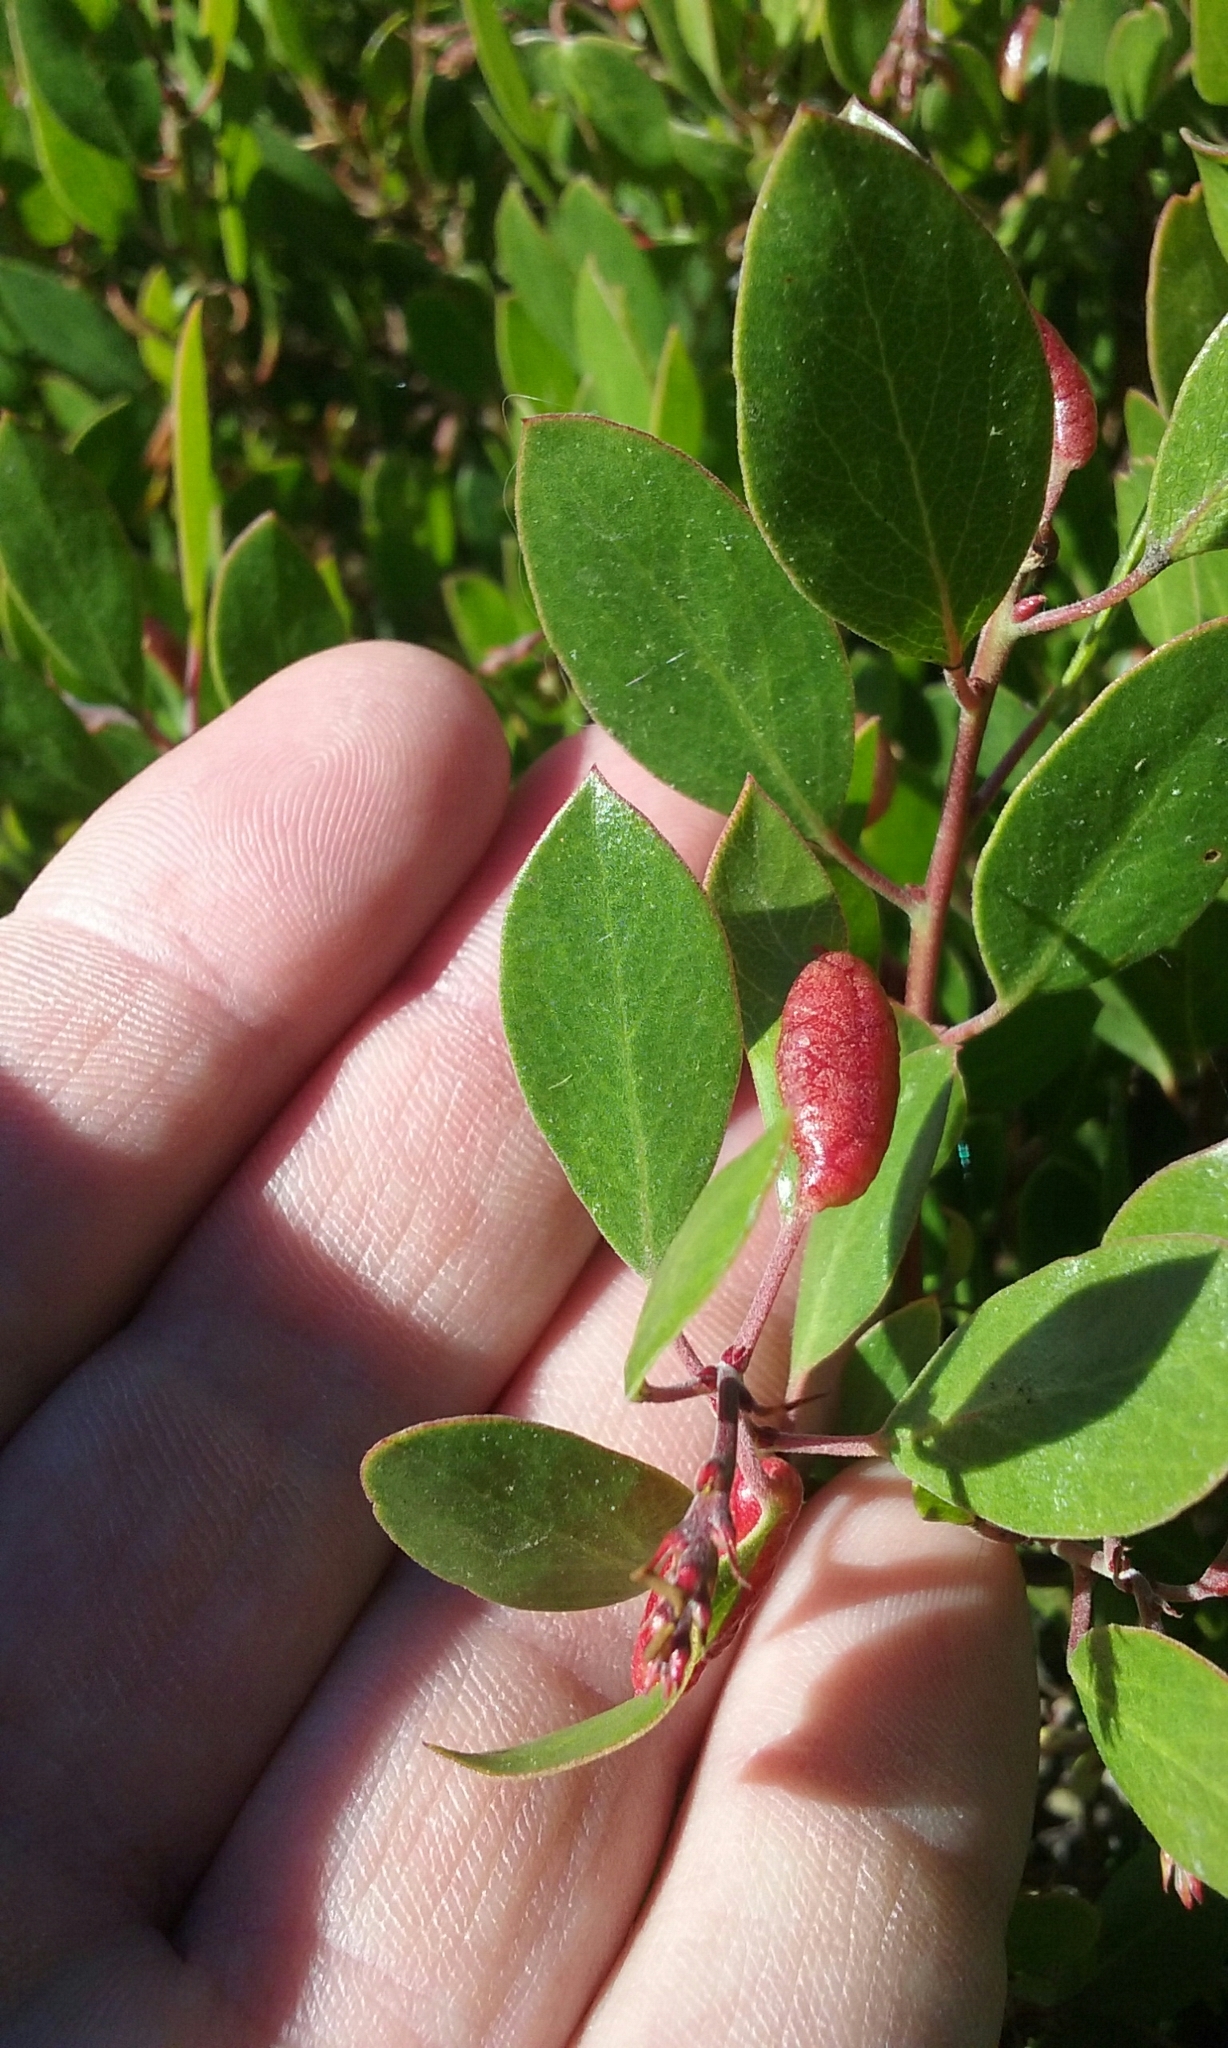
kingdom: Animalia
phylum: Arthropoda
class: Insecta
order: Hemiptera
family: Aphididae
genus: Tamalia
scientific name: Tamalia coweni
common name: Manzanita leafgall aphid
